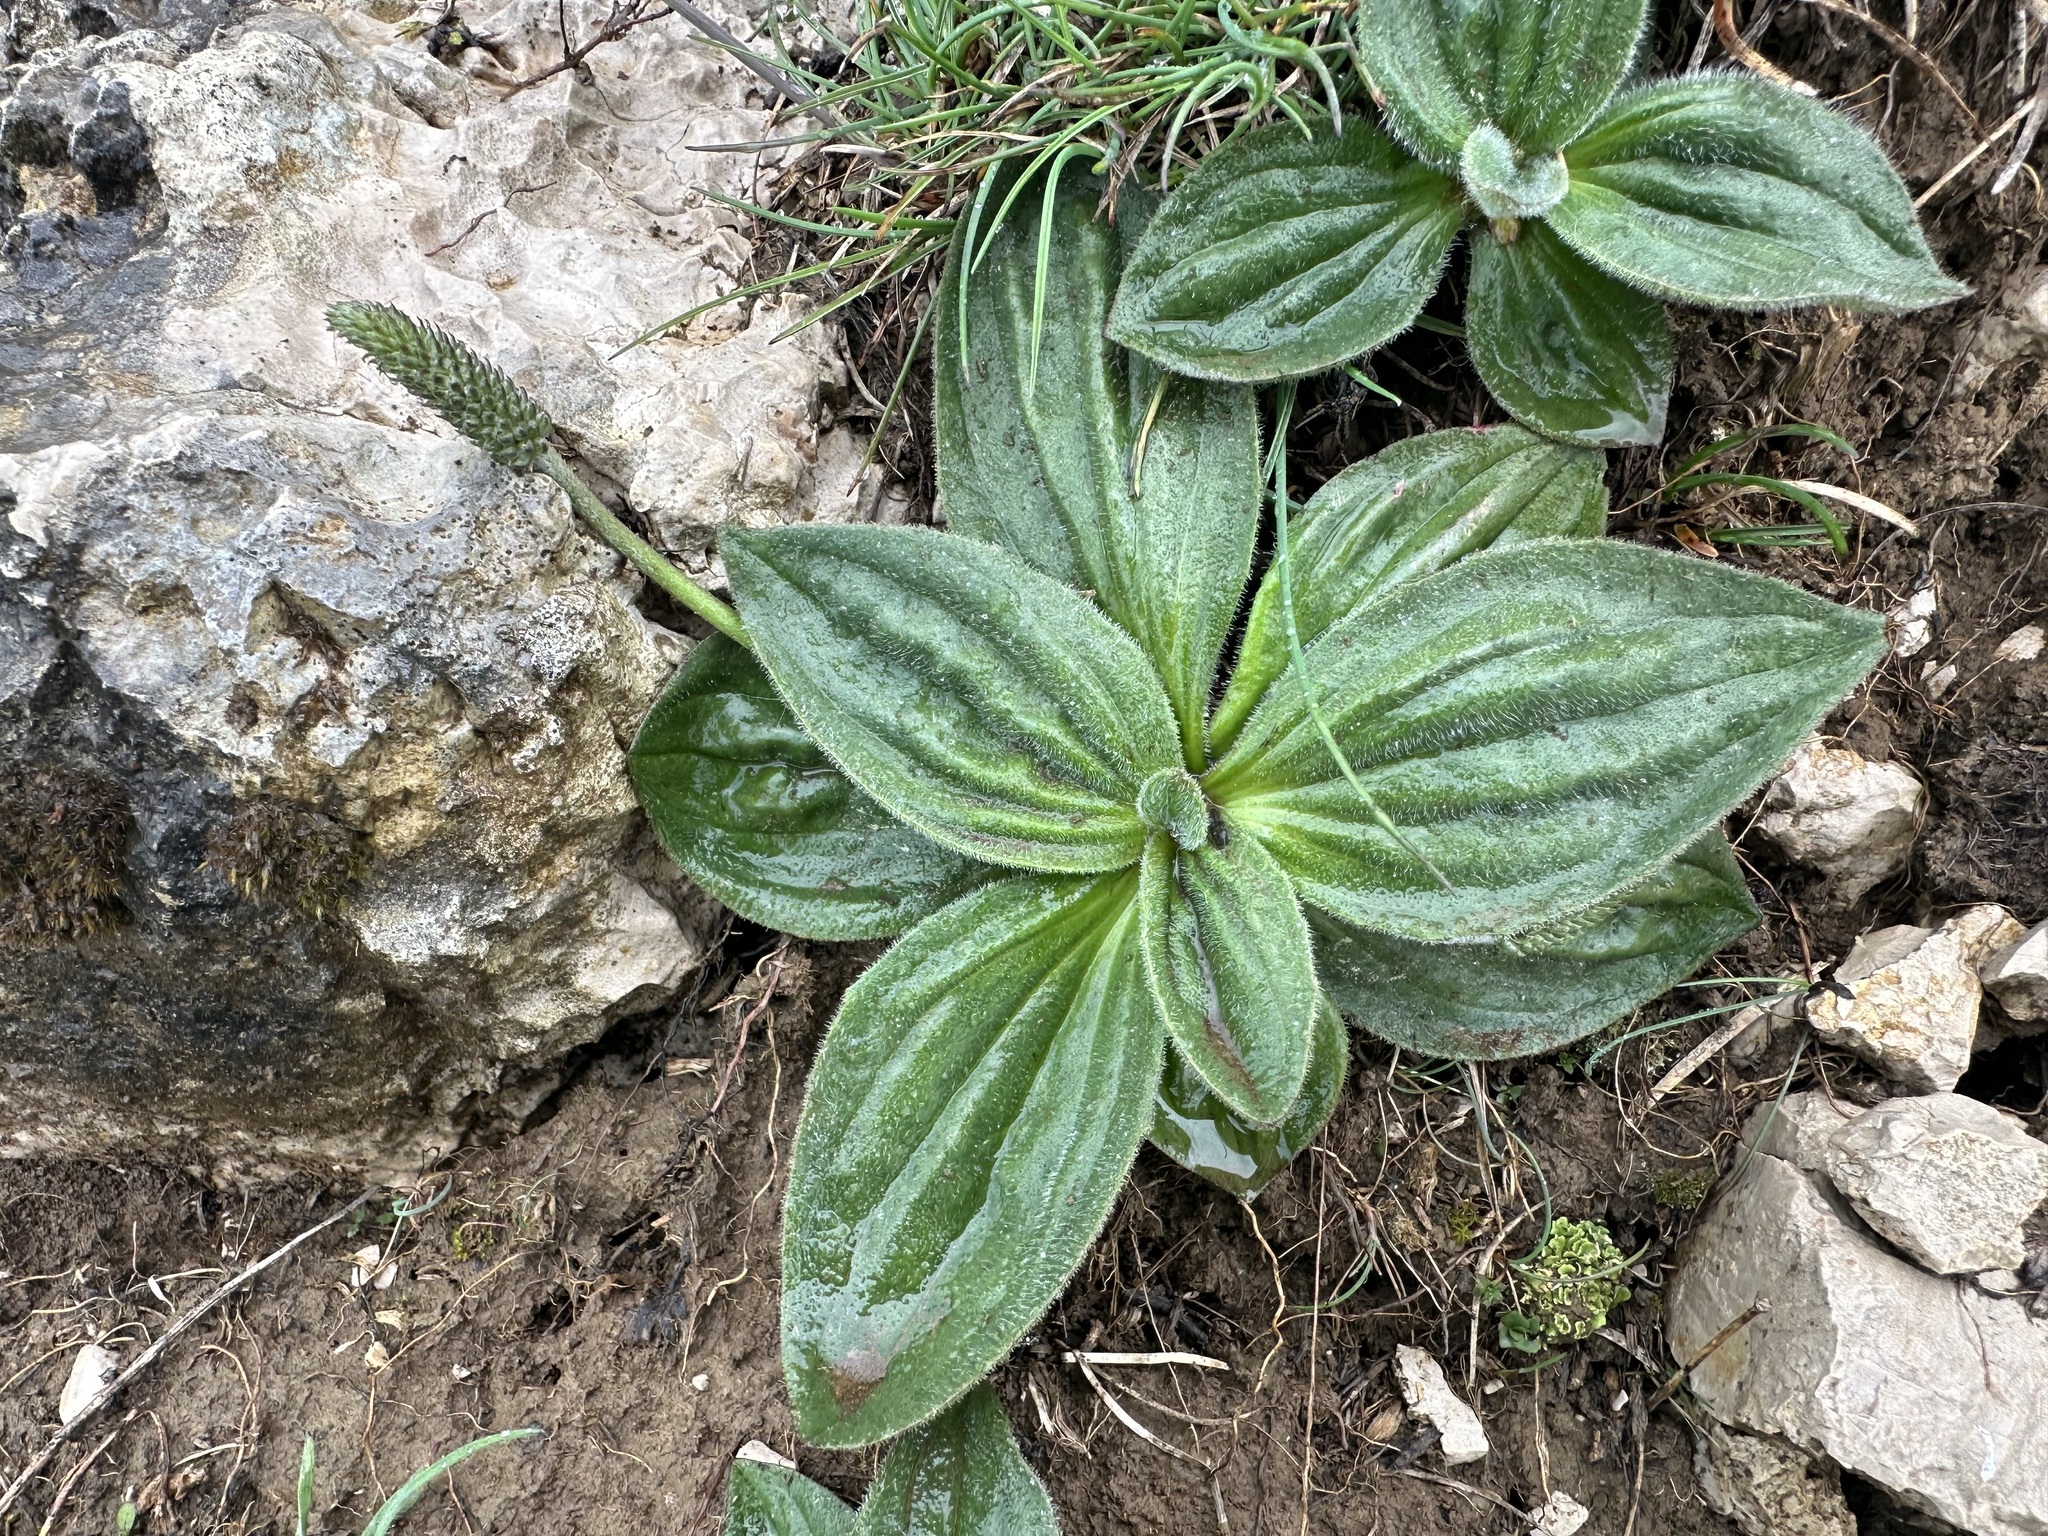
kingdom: Plantae
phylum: Tracheophyta
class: Magnoliopsida
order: Lamiales
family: Plantaginaceae
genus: Plantago
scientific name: Plantago media
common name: Hoary plantain
